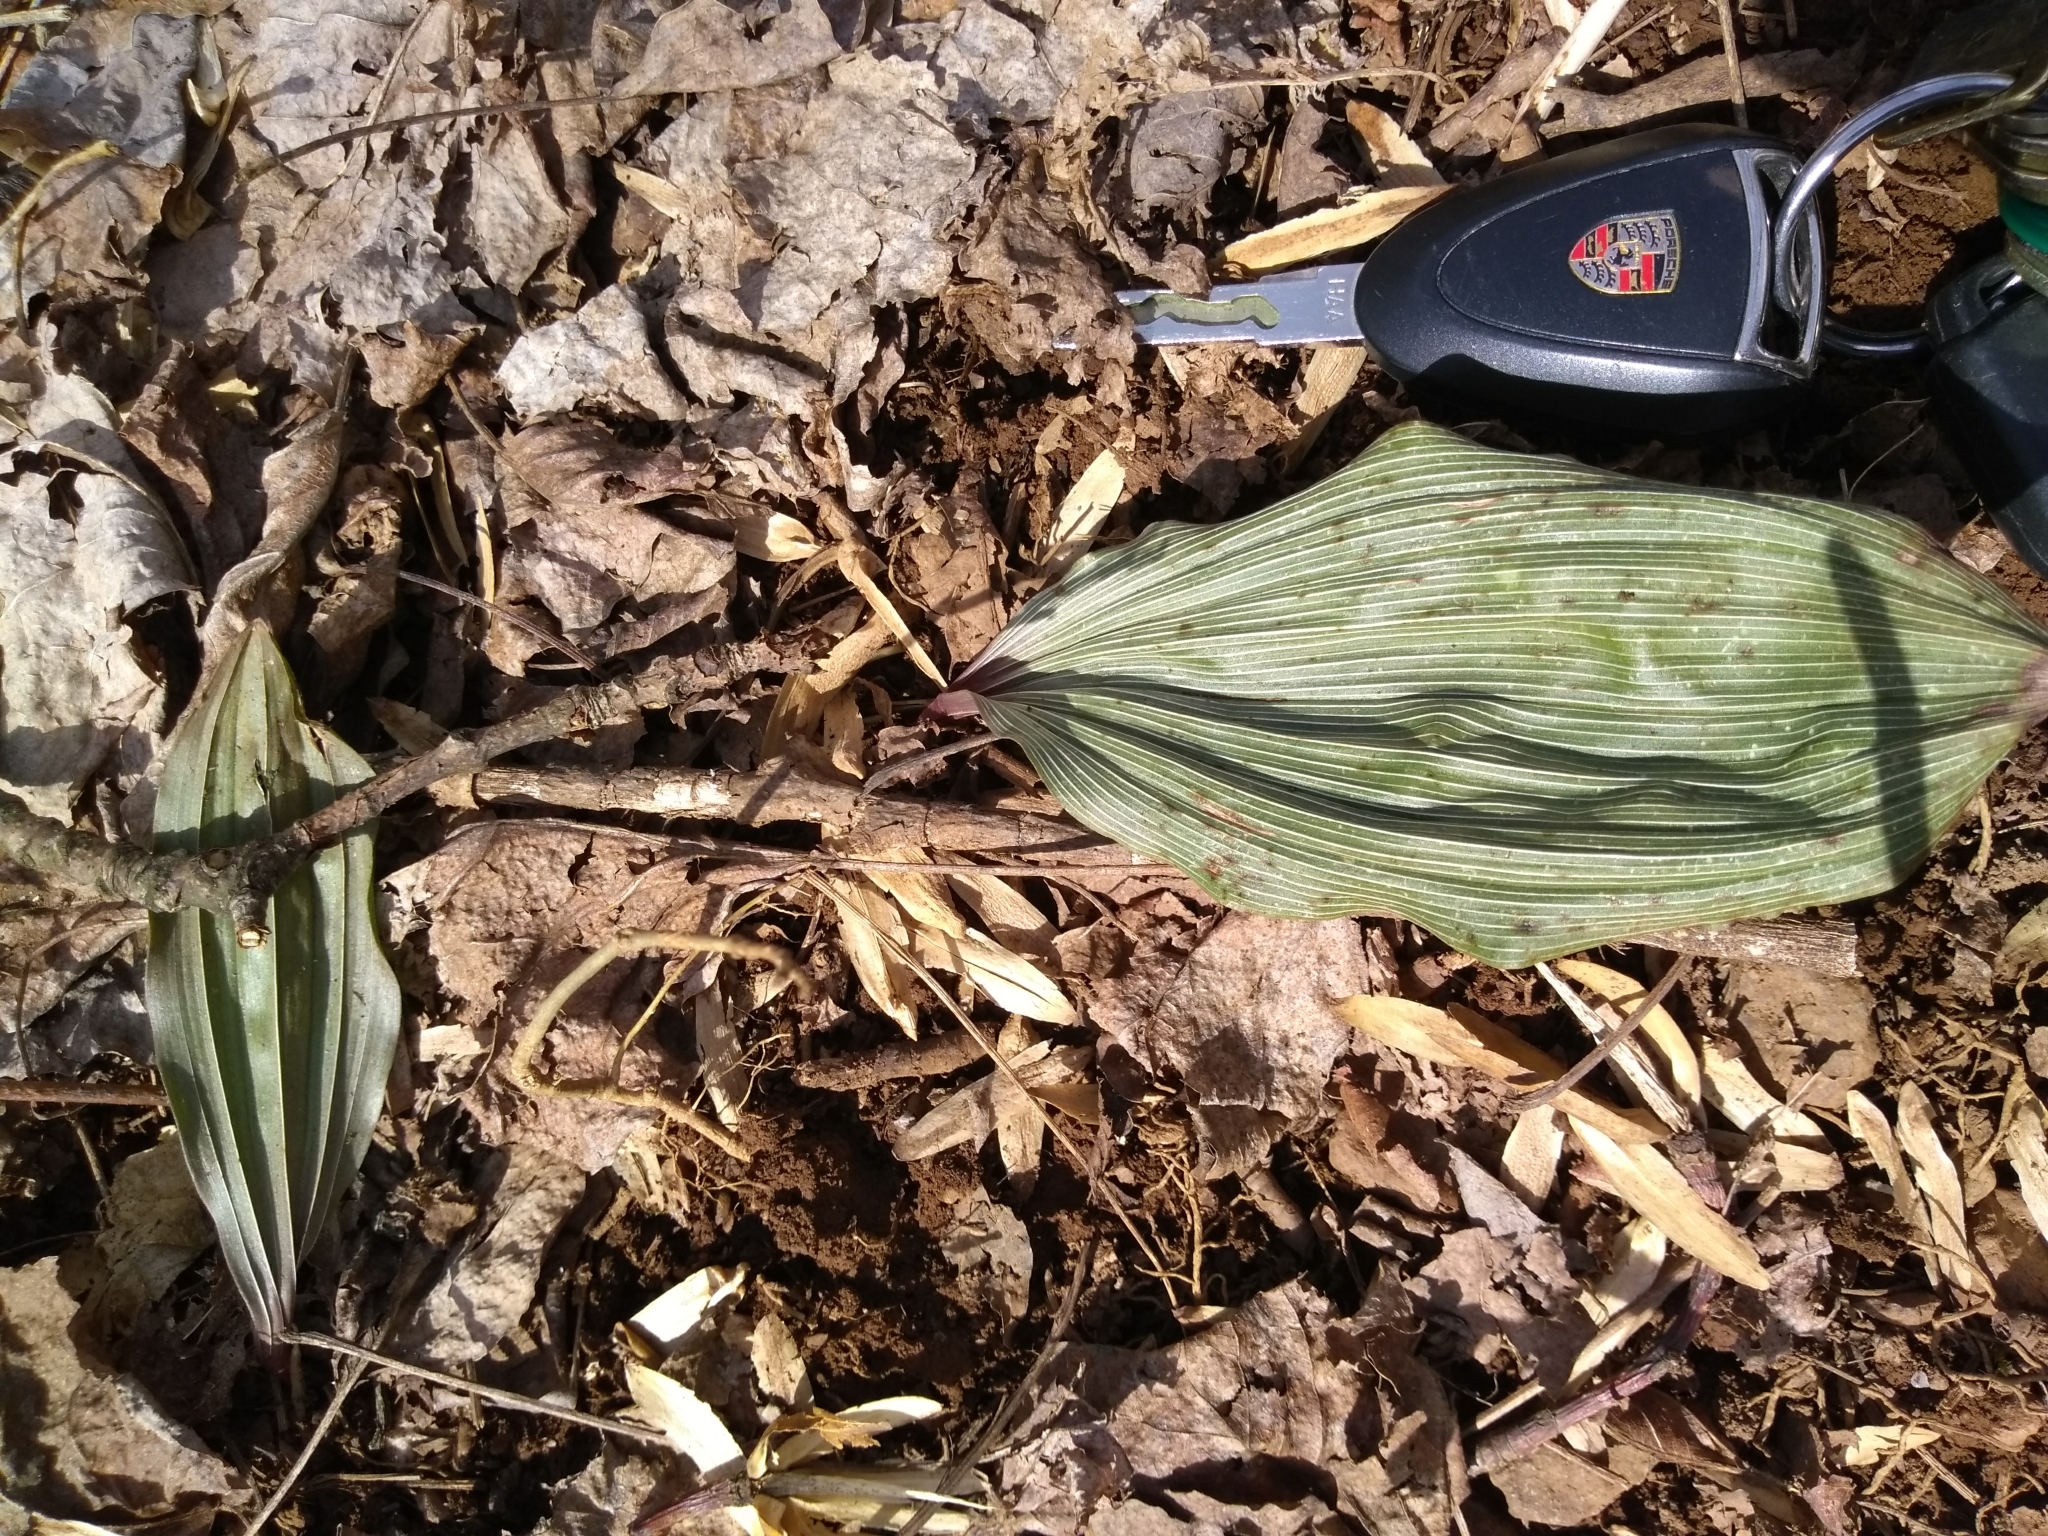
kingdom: Plantae
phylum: Tracheophyta
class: Liliopsida
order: Asparagales
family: Orchidaceae
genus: Aplectrum
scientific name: Aplectrum hyemale
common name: Adam-and-eve
